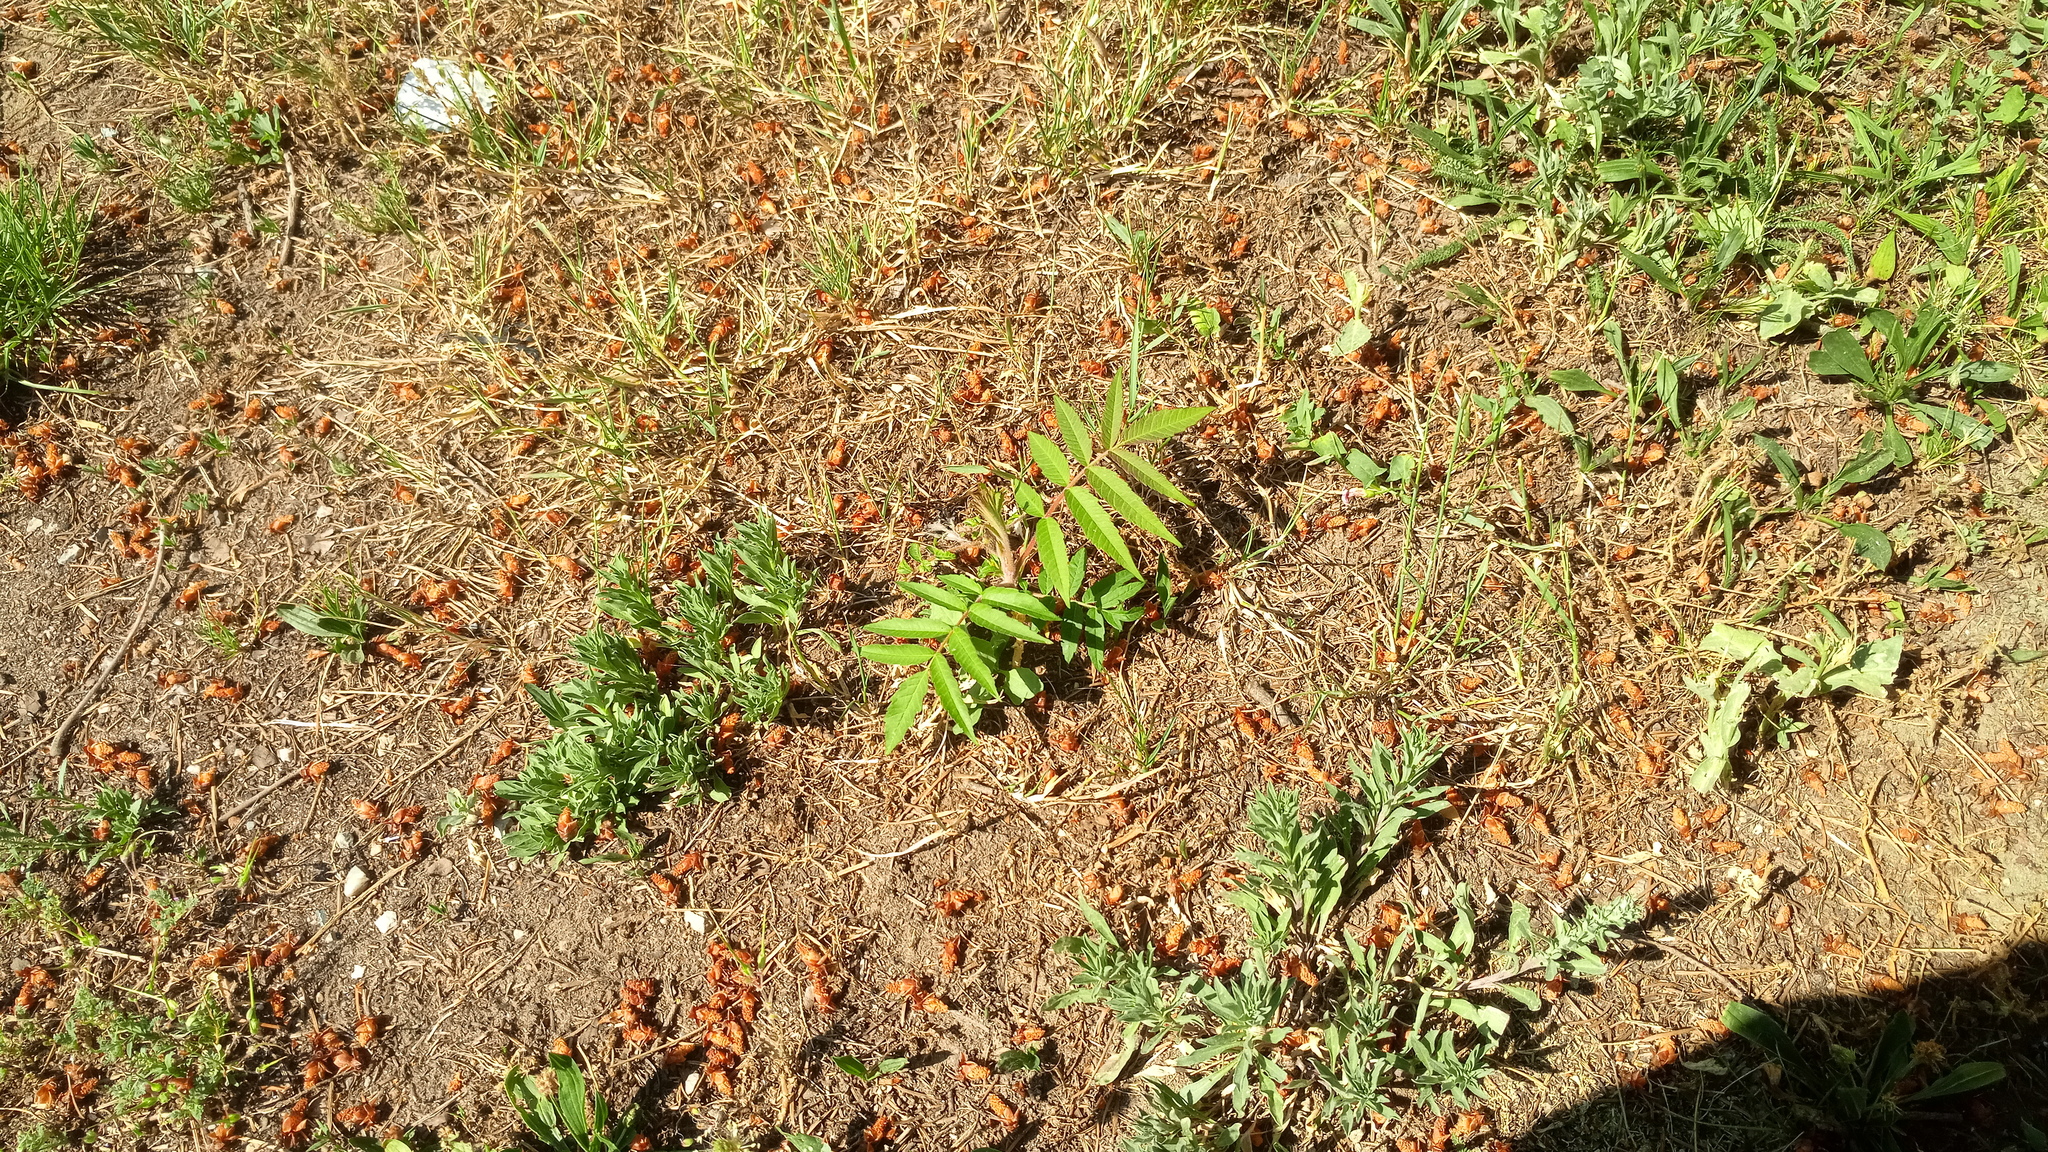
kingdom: Plantae
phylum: Tracheophyta
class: Magnoliopsida
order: Sapindales
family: Anacardiaceae
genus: Rhus
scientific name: Rhus typhina
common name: Staghorn sumac
